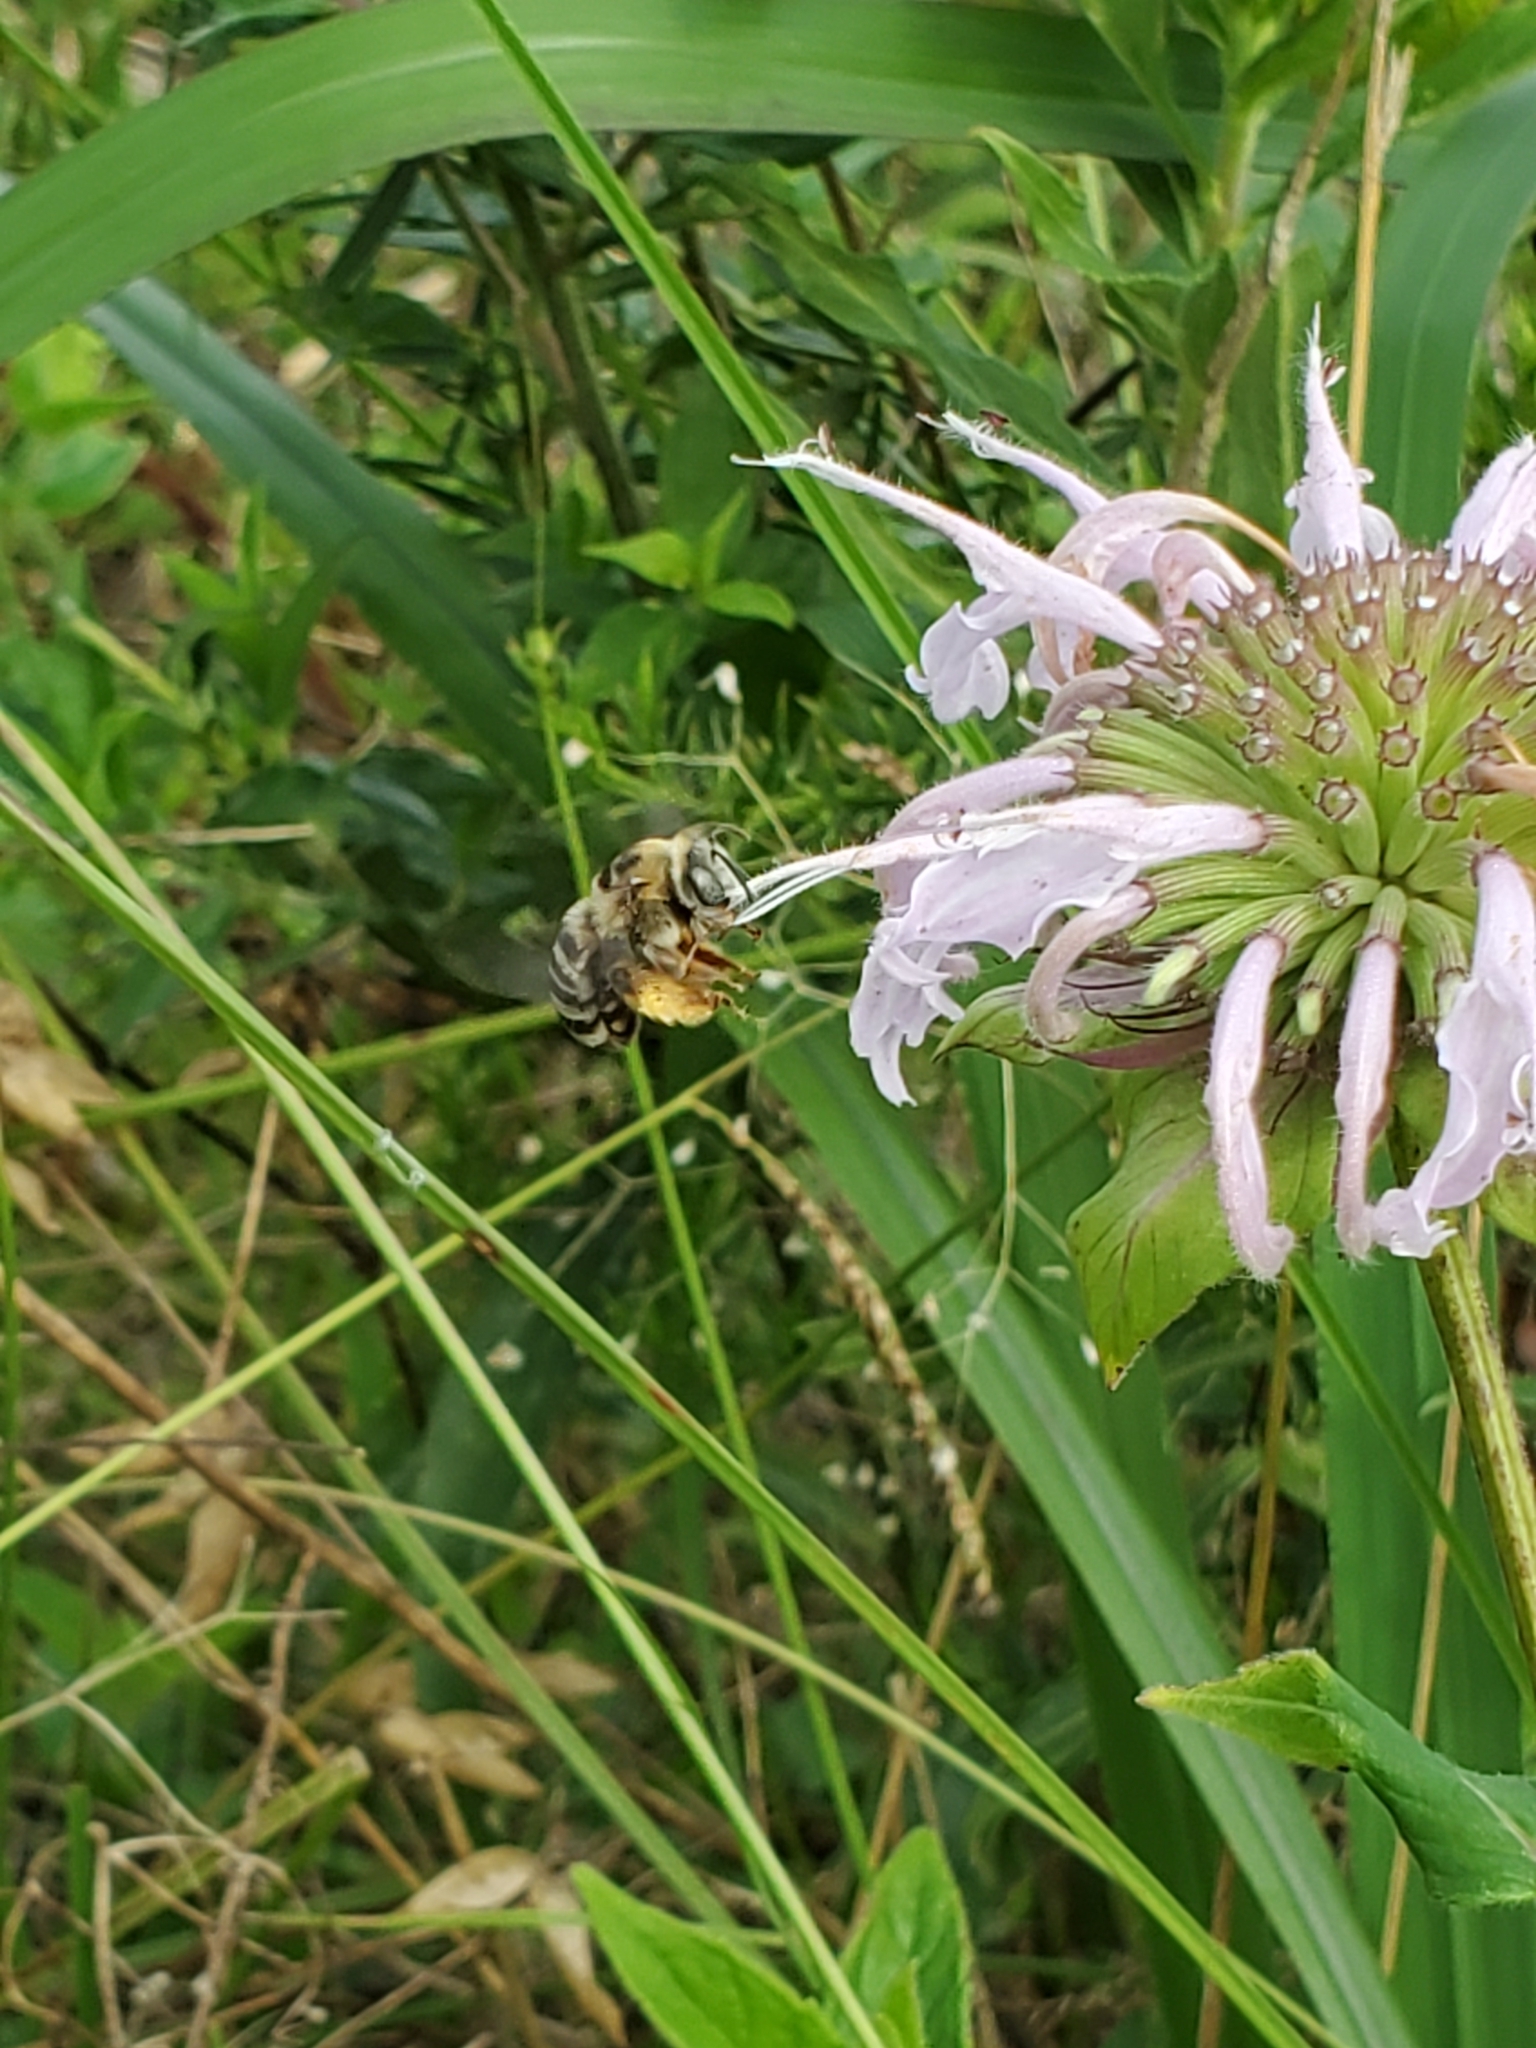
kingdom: Animalia
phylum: Arthropoda
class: Insecta
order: Hymenoptera
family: Apidae
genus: Melissodes
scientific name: Melissodes communis
